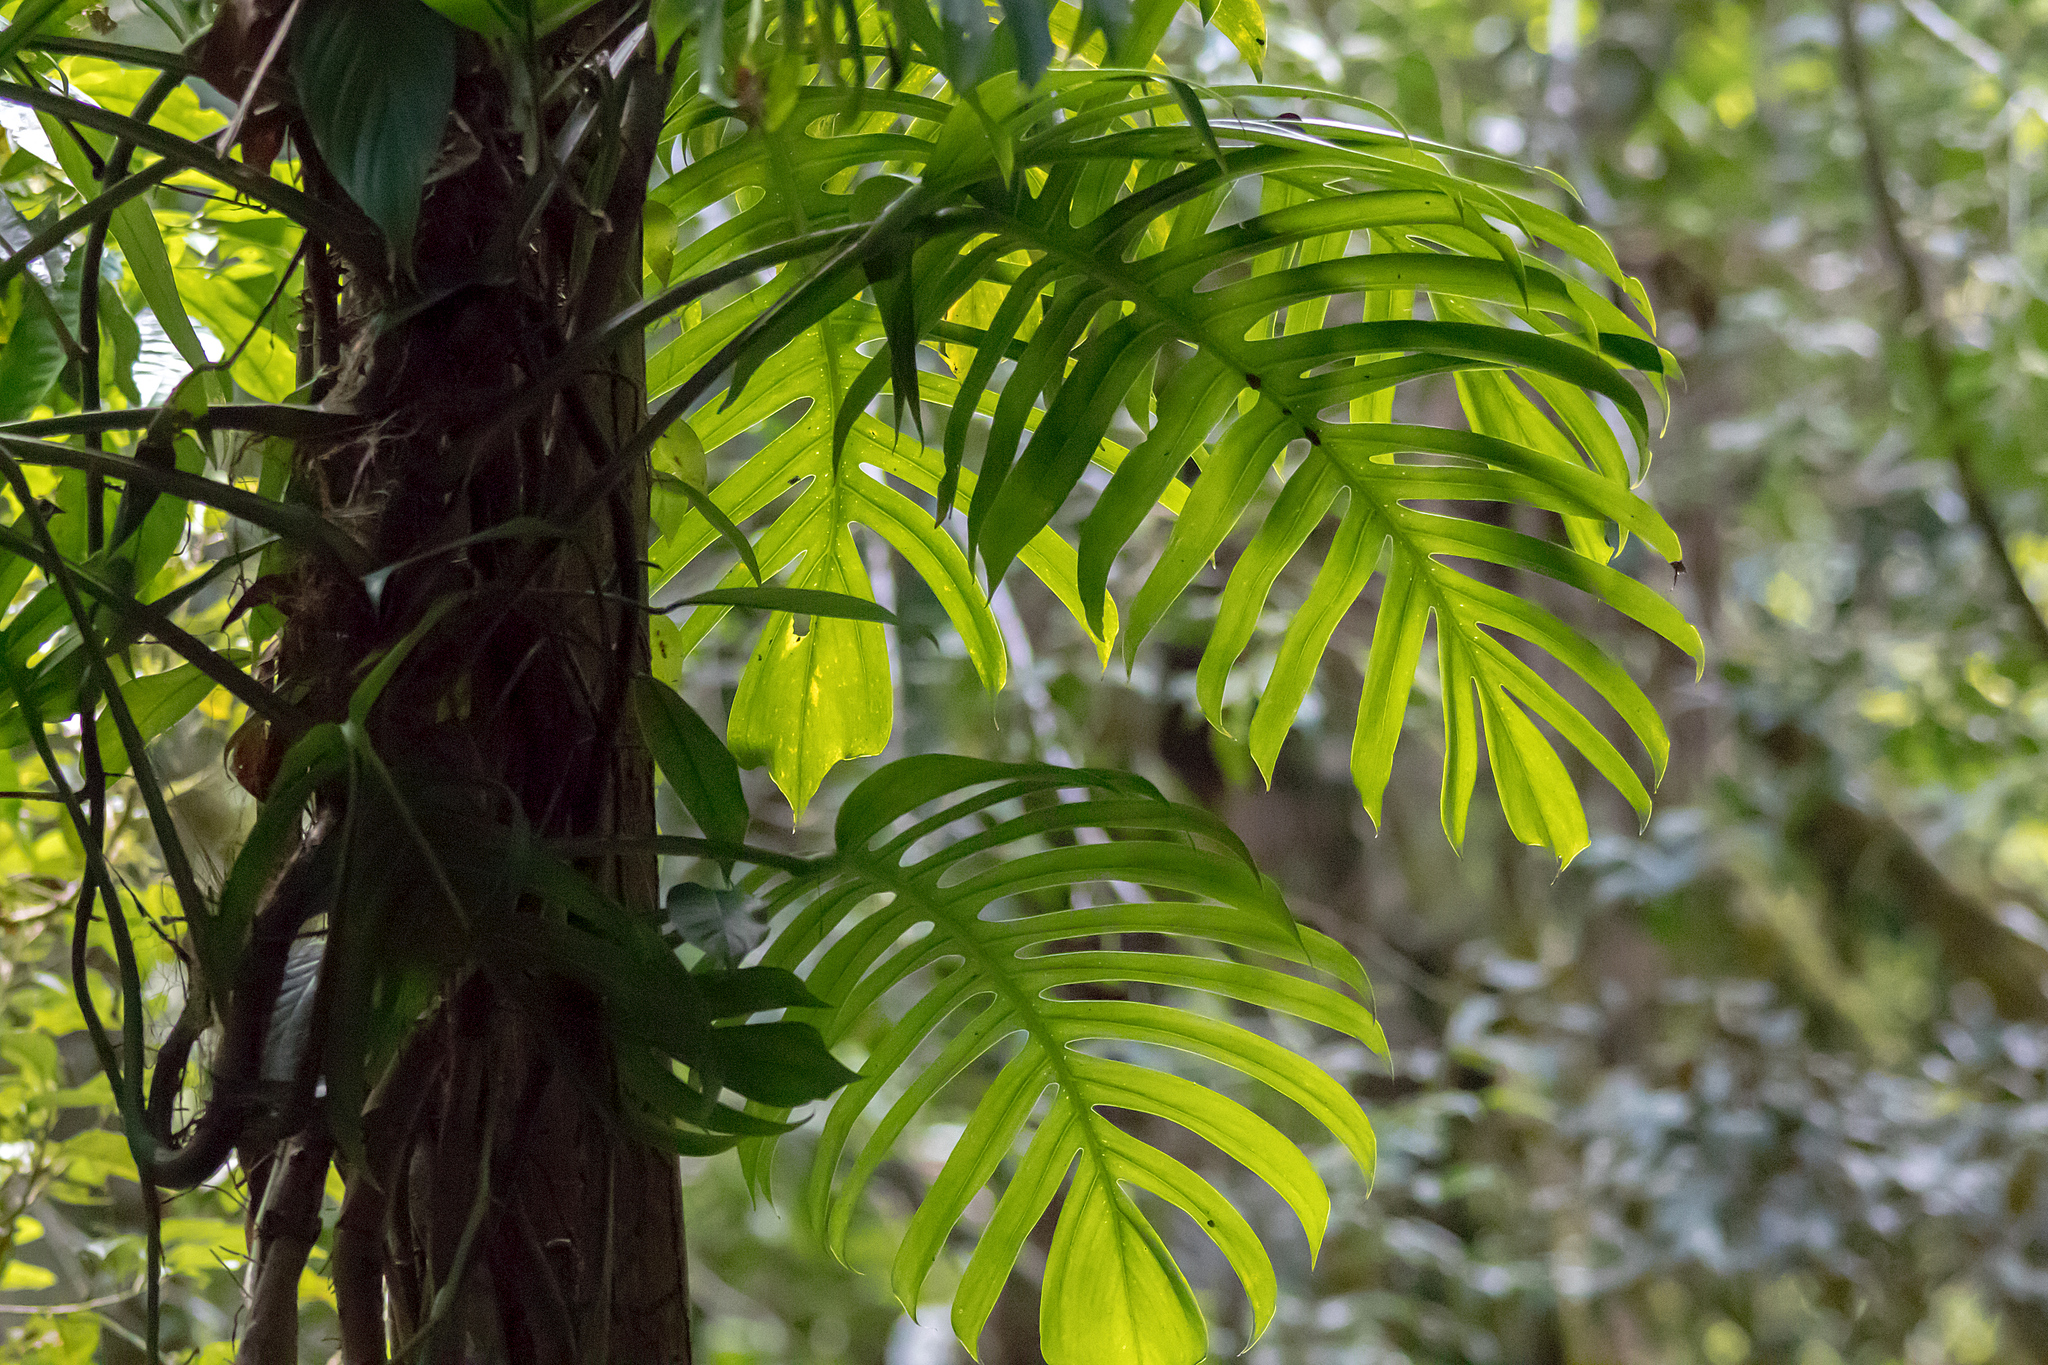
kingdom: Plantae
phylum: Tracheophyta
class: Liliopsida
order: Alismatales
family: Araceae
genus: Epipremnum
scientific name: Epipremnum pinnatum
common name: Centipede tongavine
